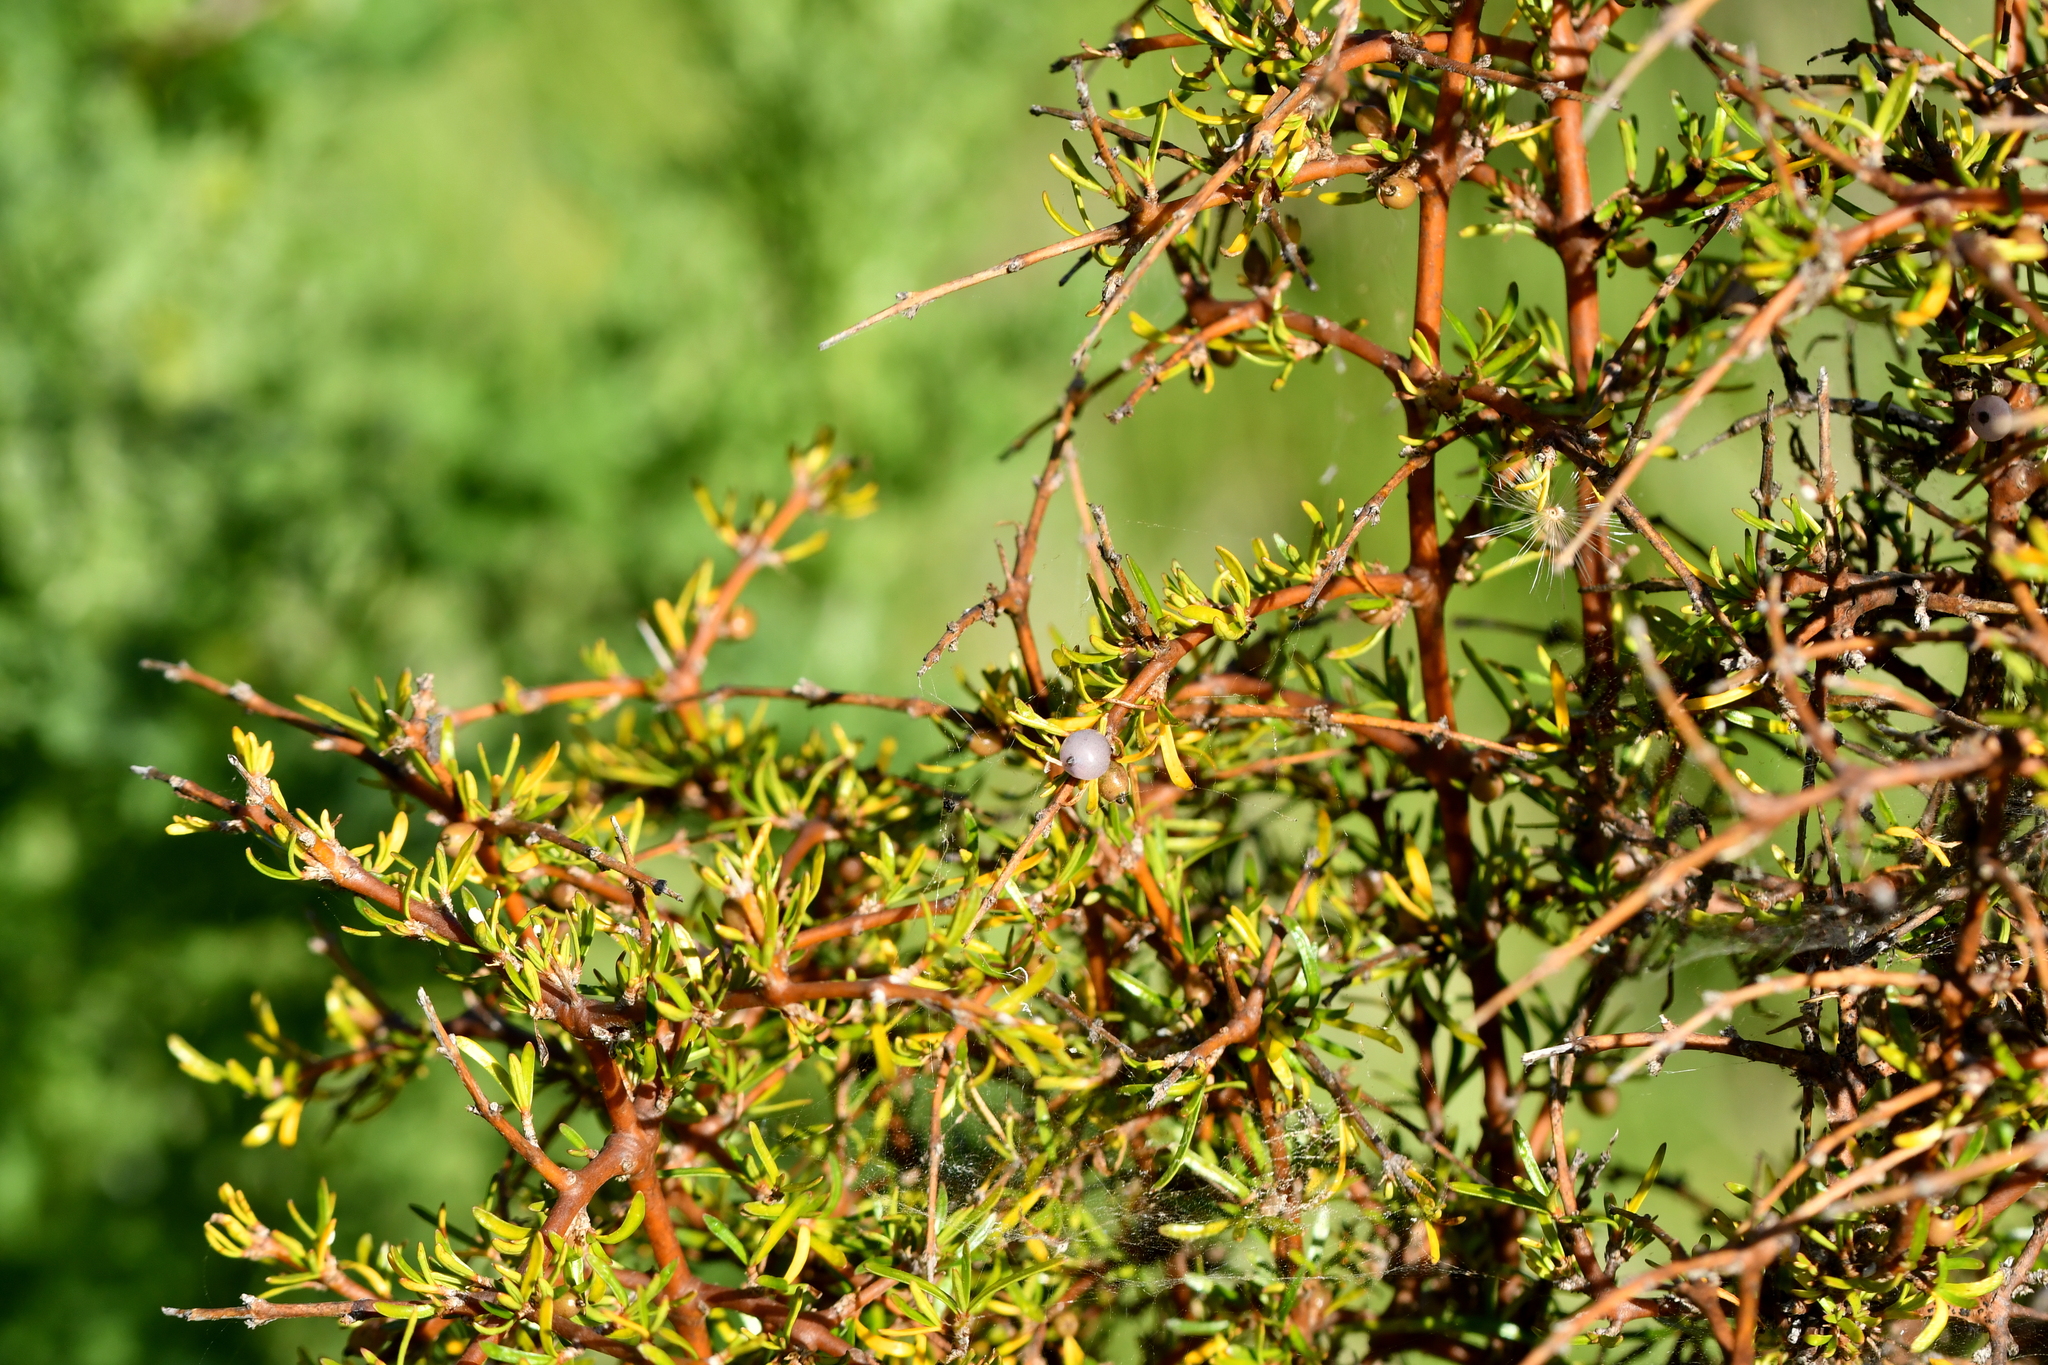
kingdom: Plantae
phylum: Tracheophyta
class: Magnoliopsida
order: Gentianales
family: Rubiaceae
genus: Coprosma
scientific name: Coprosma rugosa
